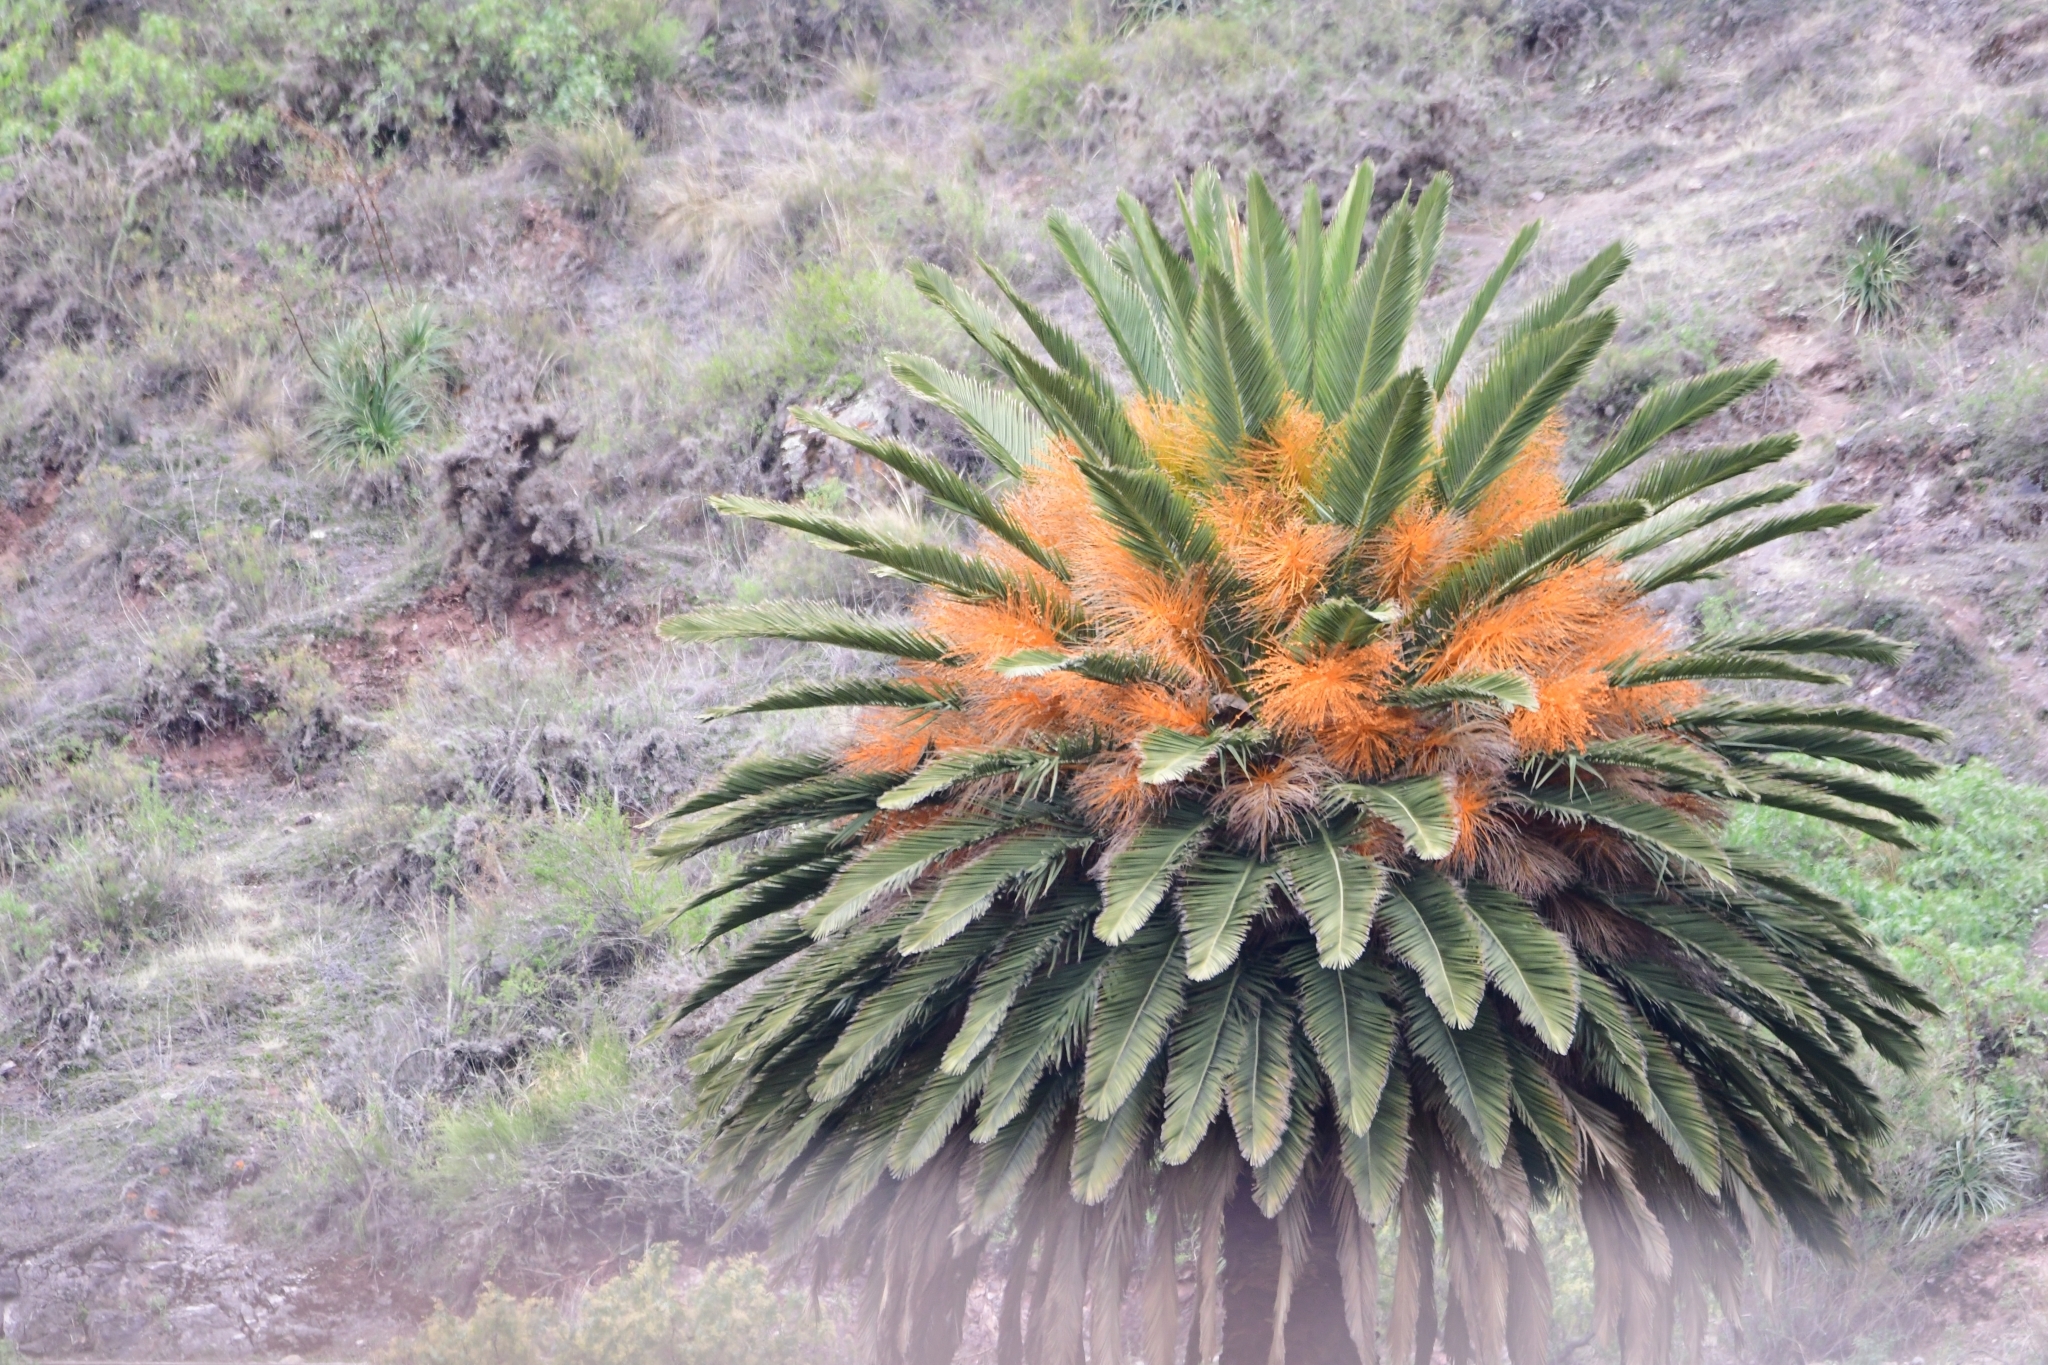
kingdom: Plantae
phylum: Tracheophyta
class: Liliopsida
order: Arecales
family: Arecaceae
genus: Phoenix
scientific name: Phoenix canariensis
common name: Canary island date palm
